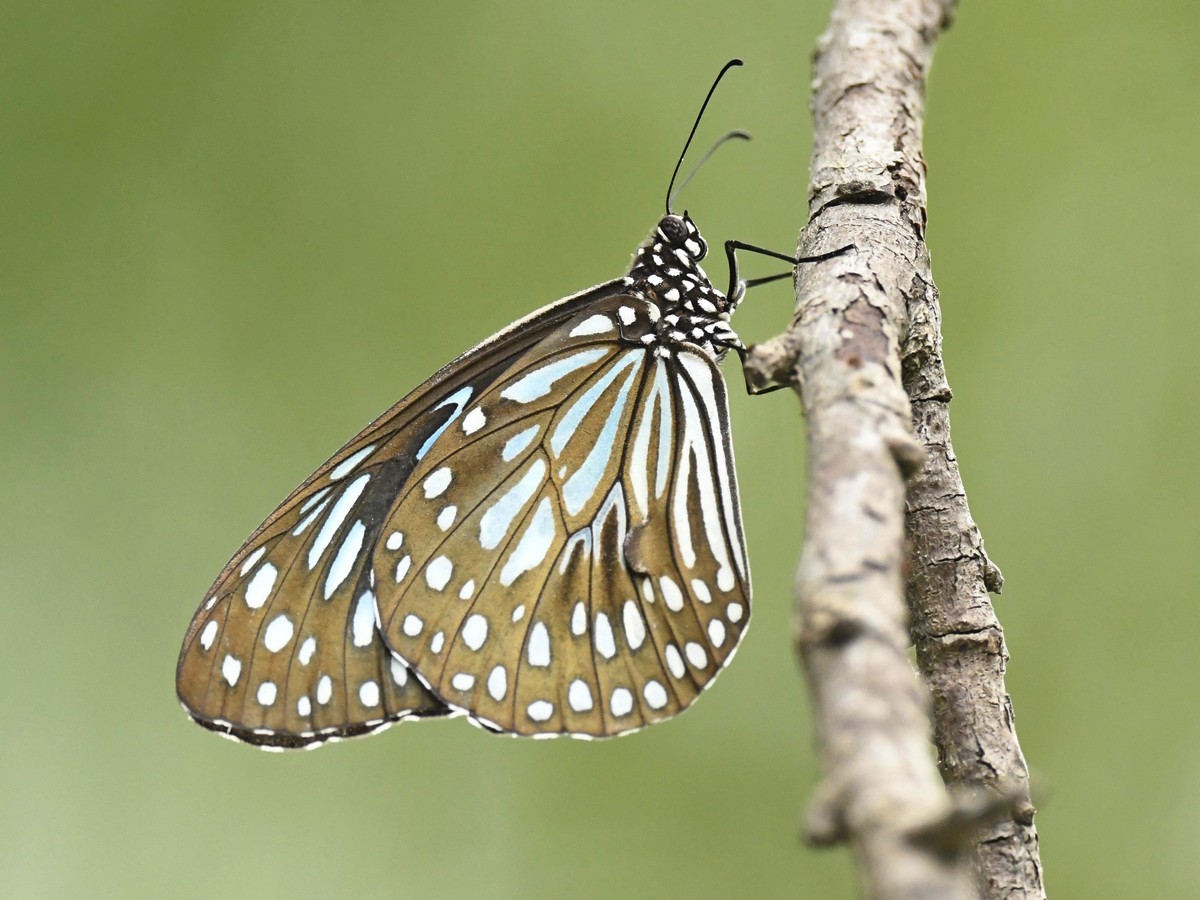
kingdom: Animalia
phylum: Arthropoda
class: Insecta
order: Lepidoptera
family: Nymphalidae
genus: Tirumala
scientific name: Tirumala septentrionis
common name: Dark blue tiger butterfly
